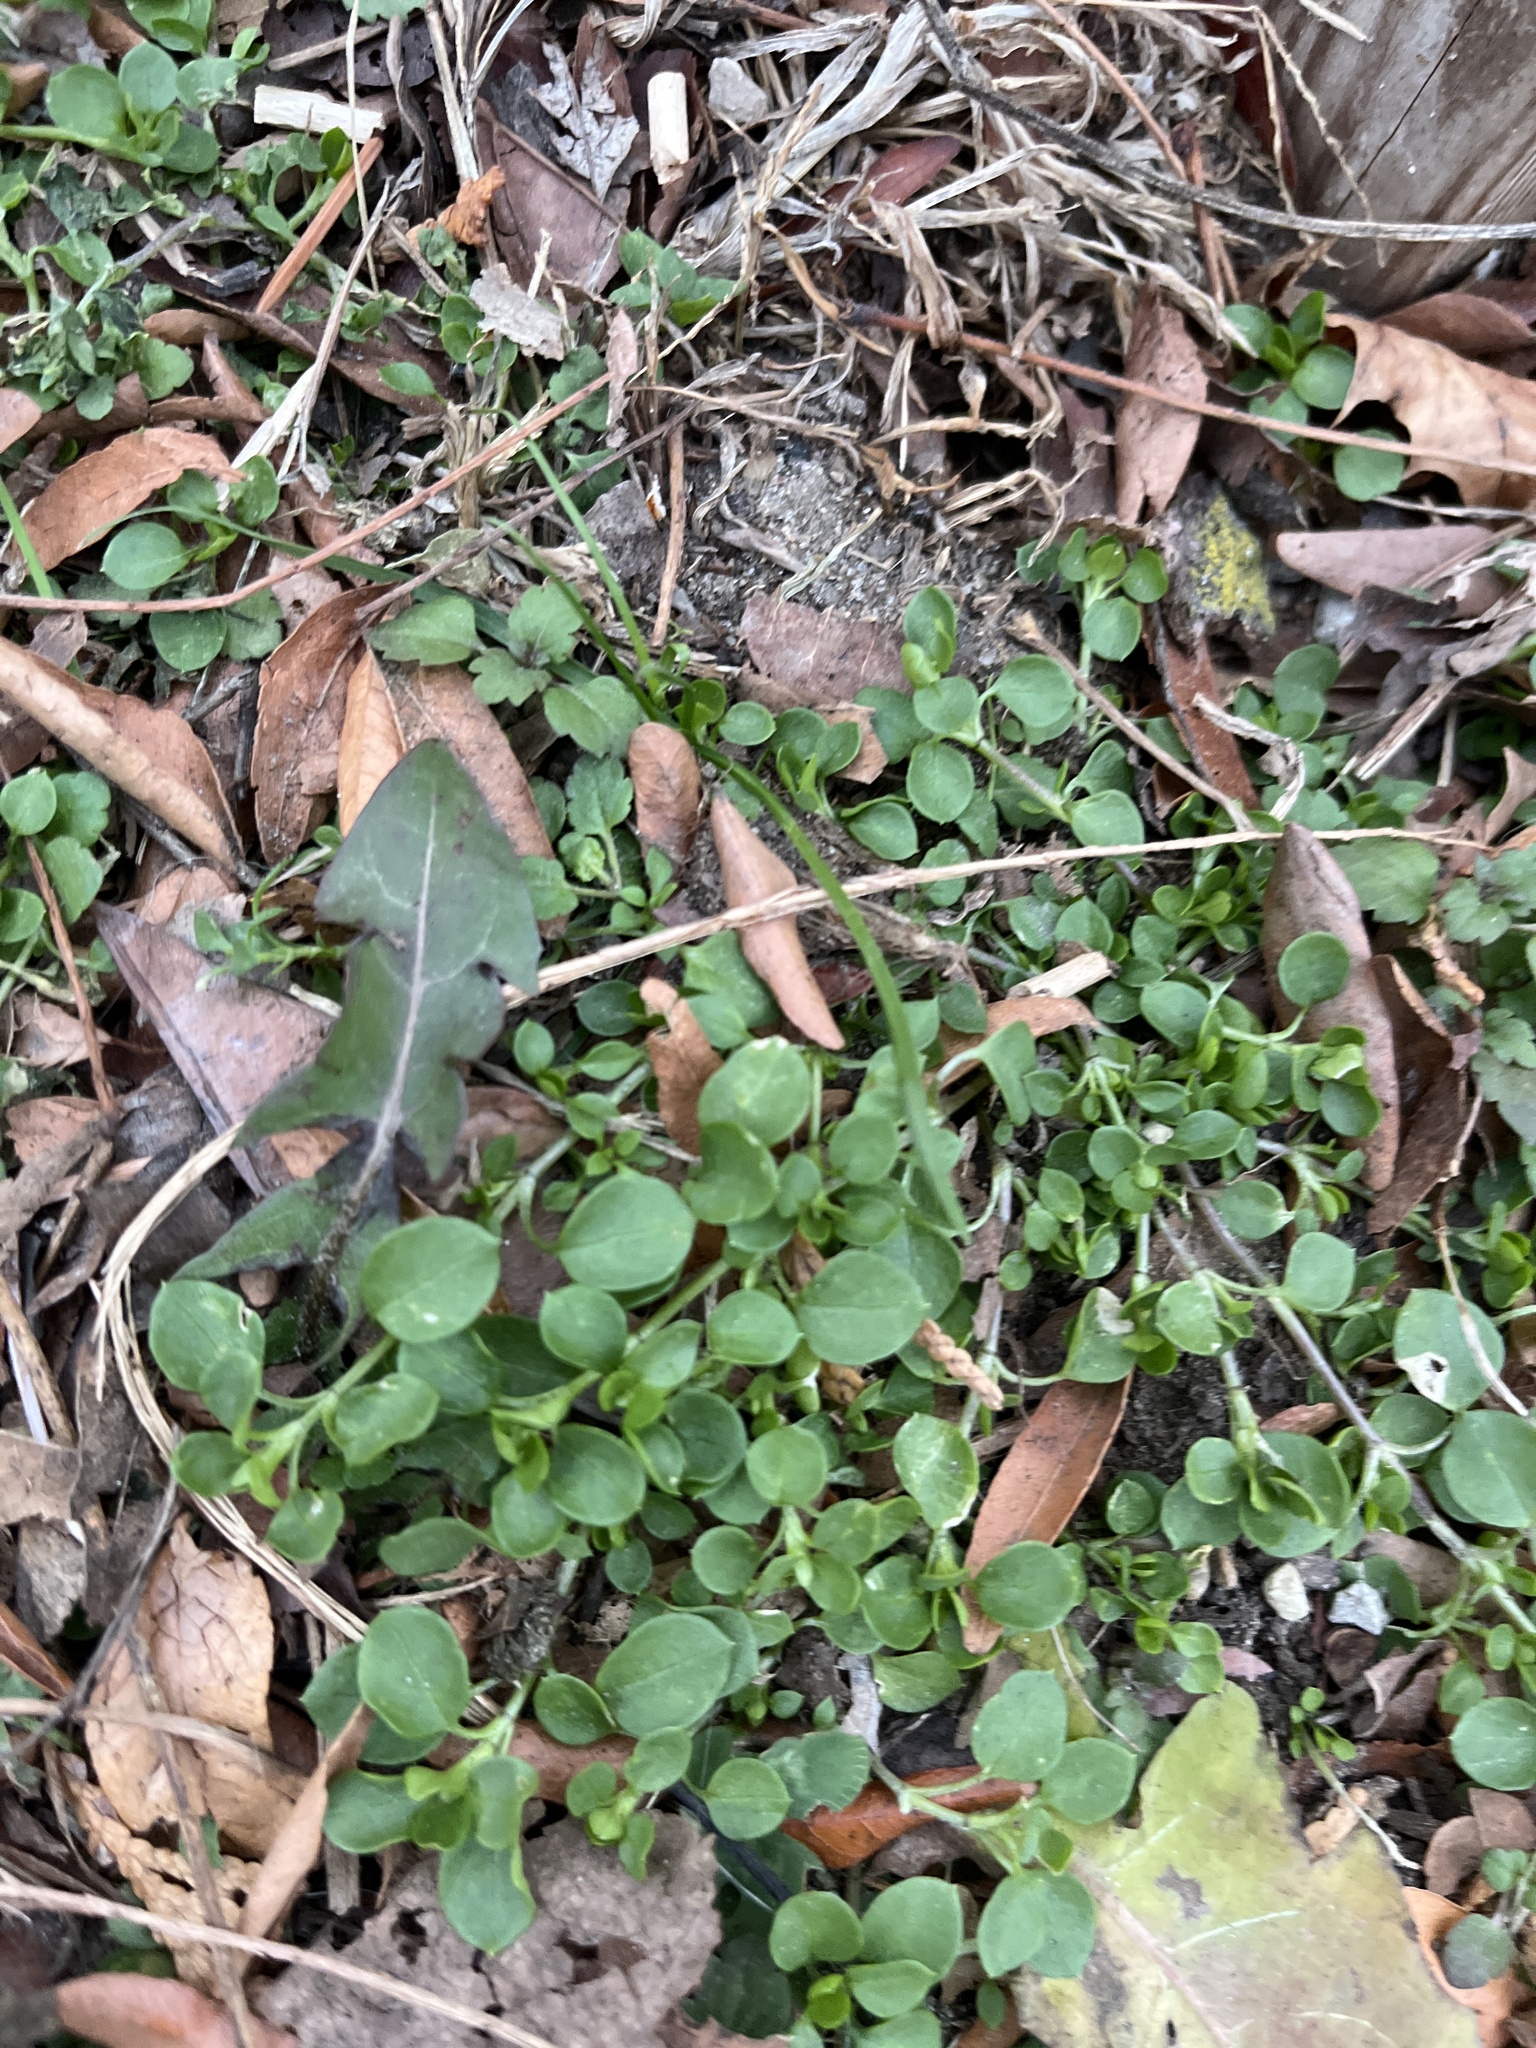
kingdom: Plantae
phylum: Tracheophyta
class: Magnoliopsida
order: Caryophyllales
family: Caryophyllaceae
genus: Stellaria
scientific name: Stellaria media
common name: Common chickweed
